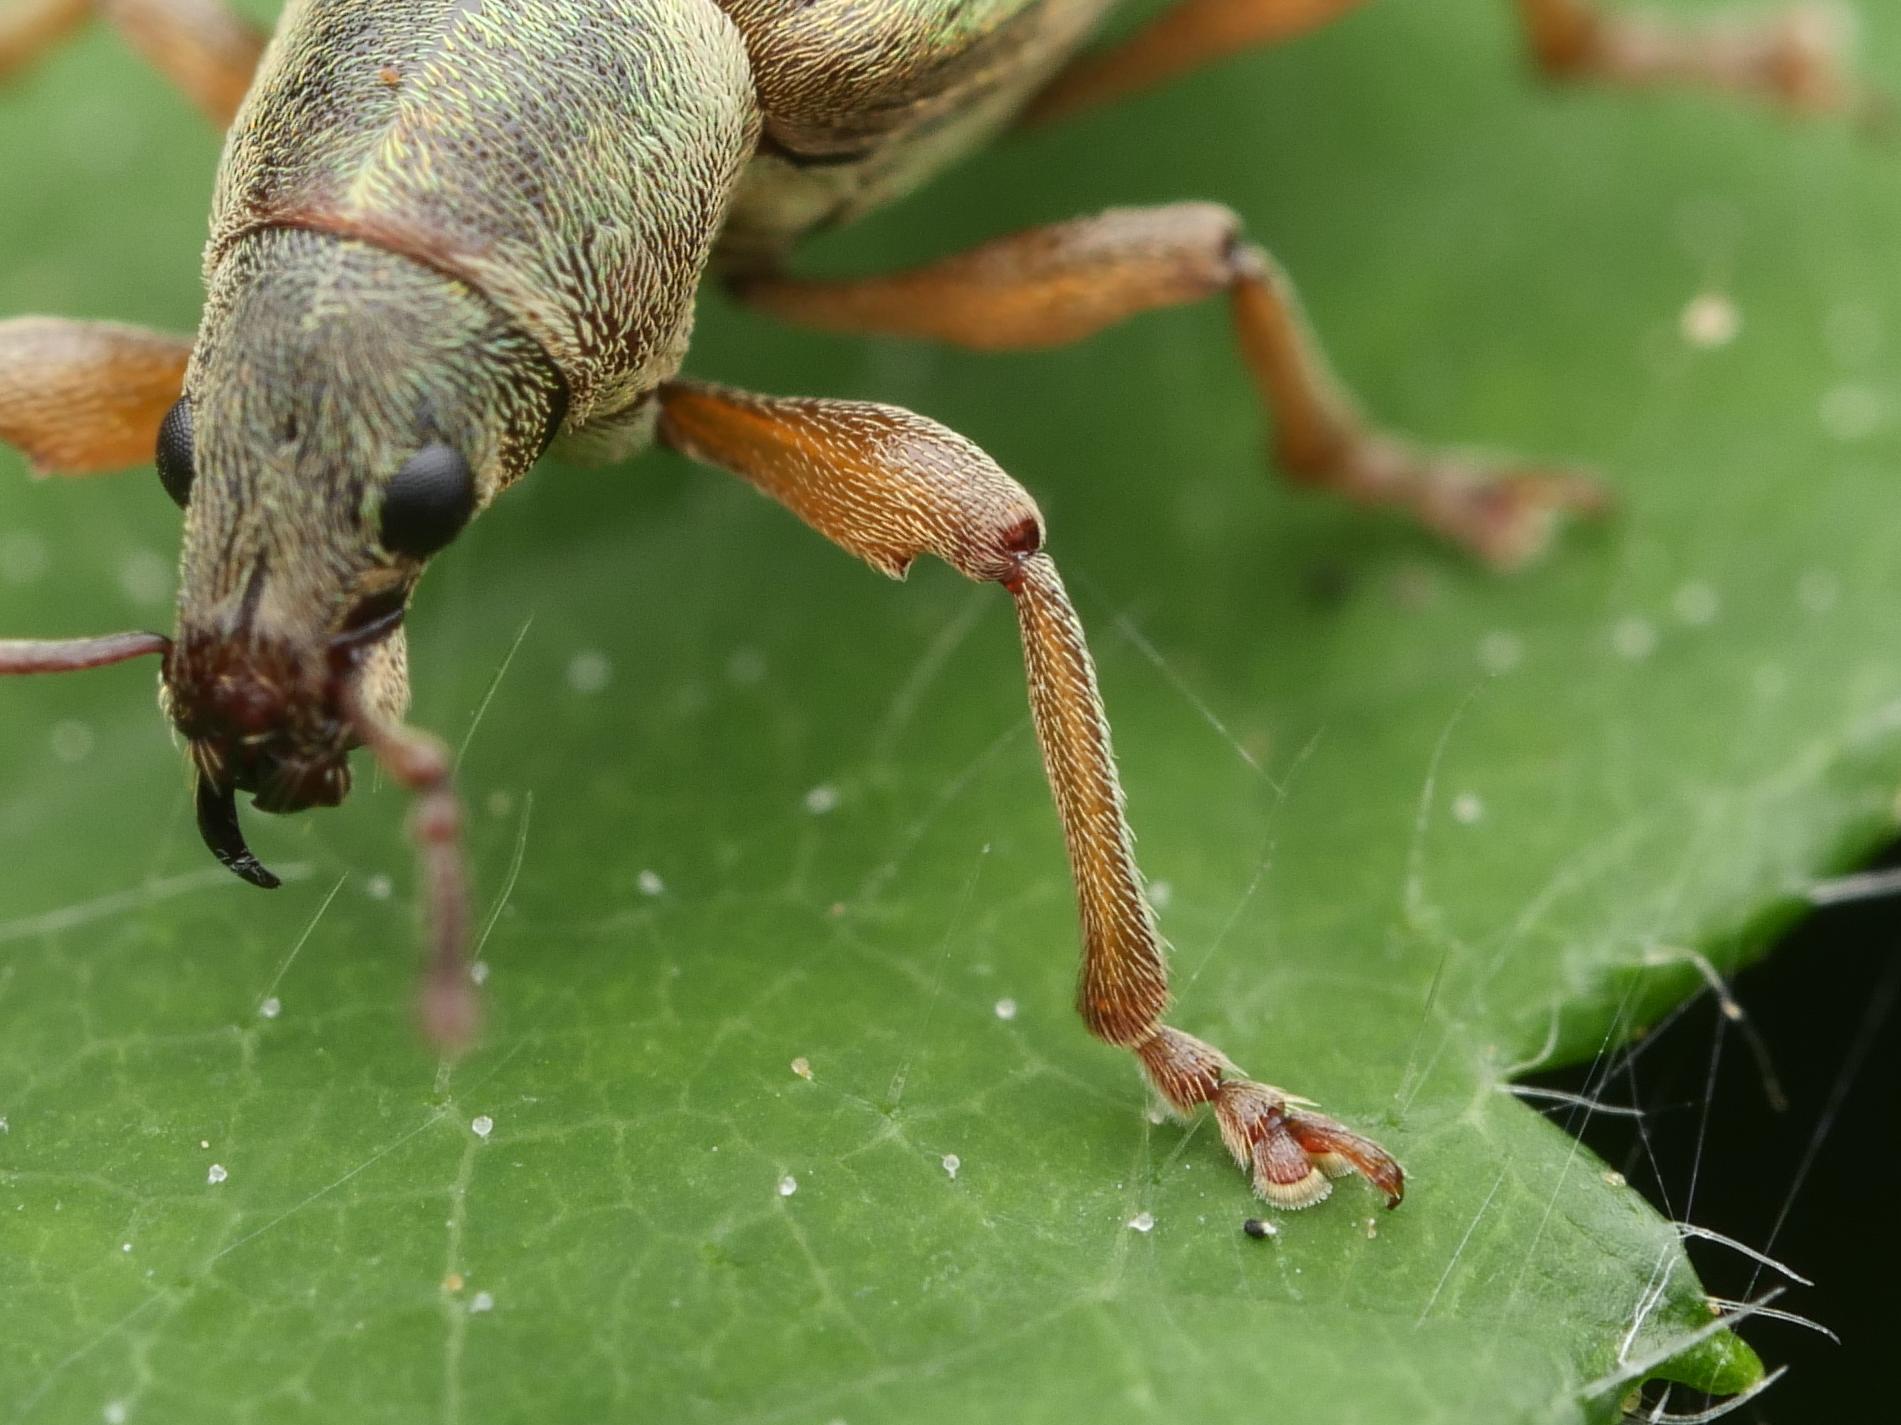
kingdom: Animalia
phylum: Arthropoda
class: Insecta
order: Coleoptera
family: Curculionidae
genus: Polydrusus
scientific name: Polydrusus viridinitens
